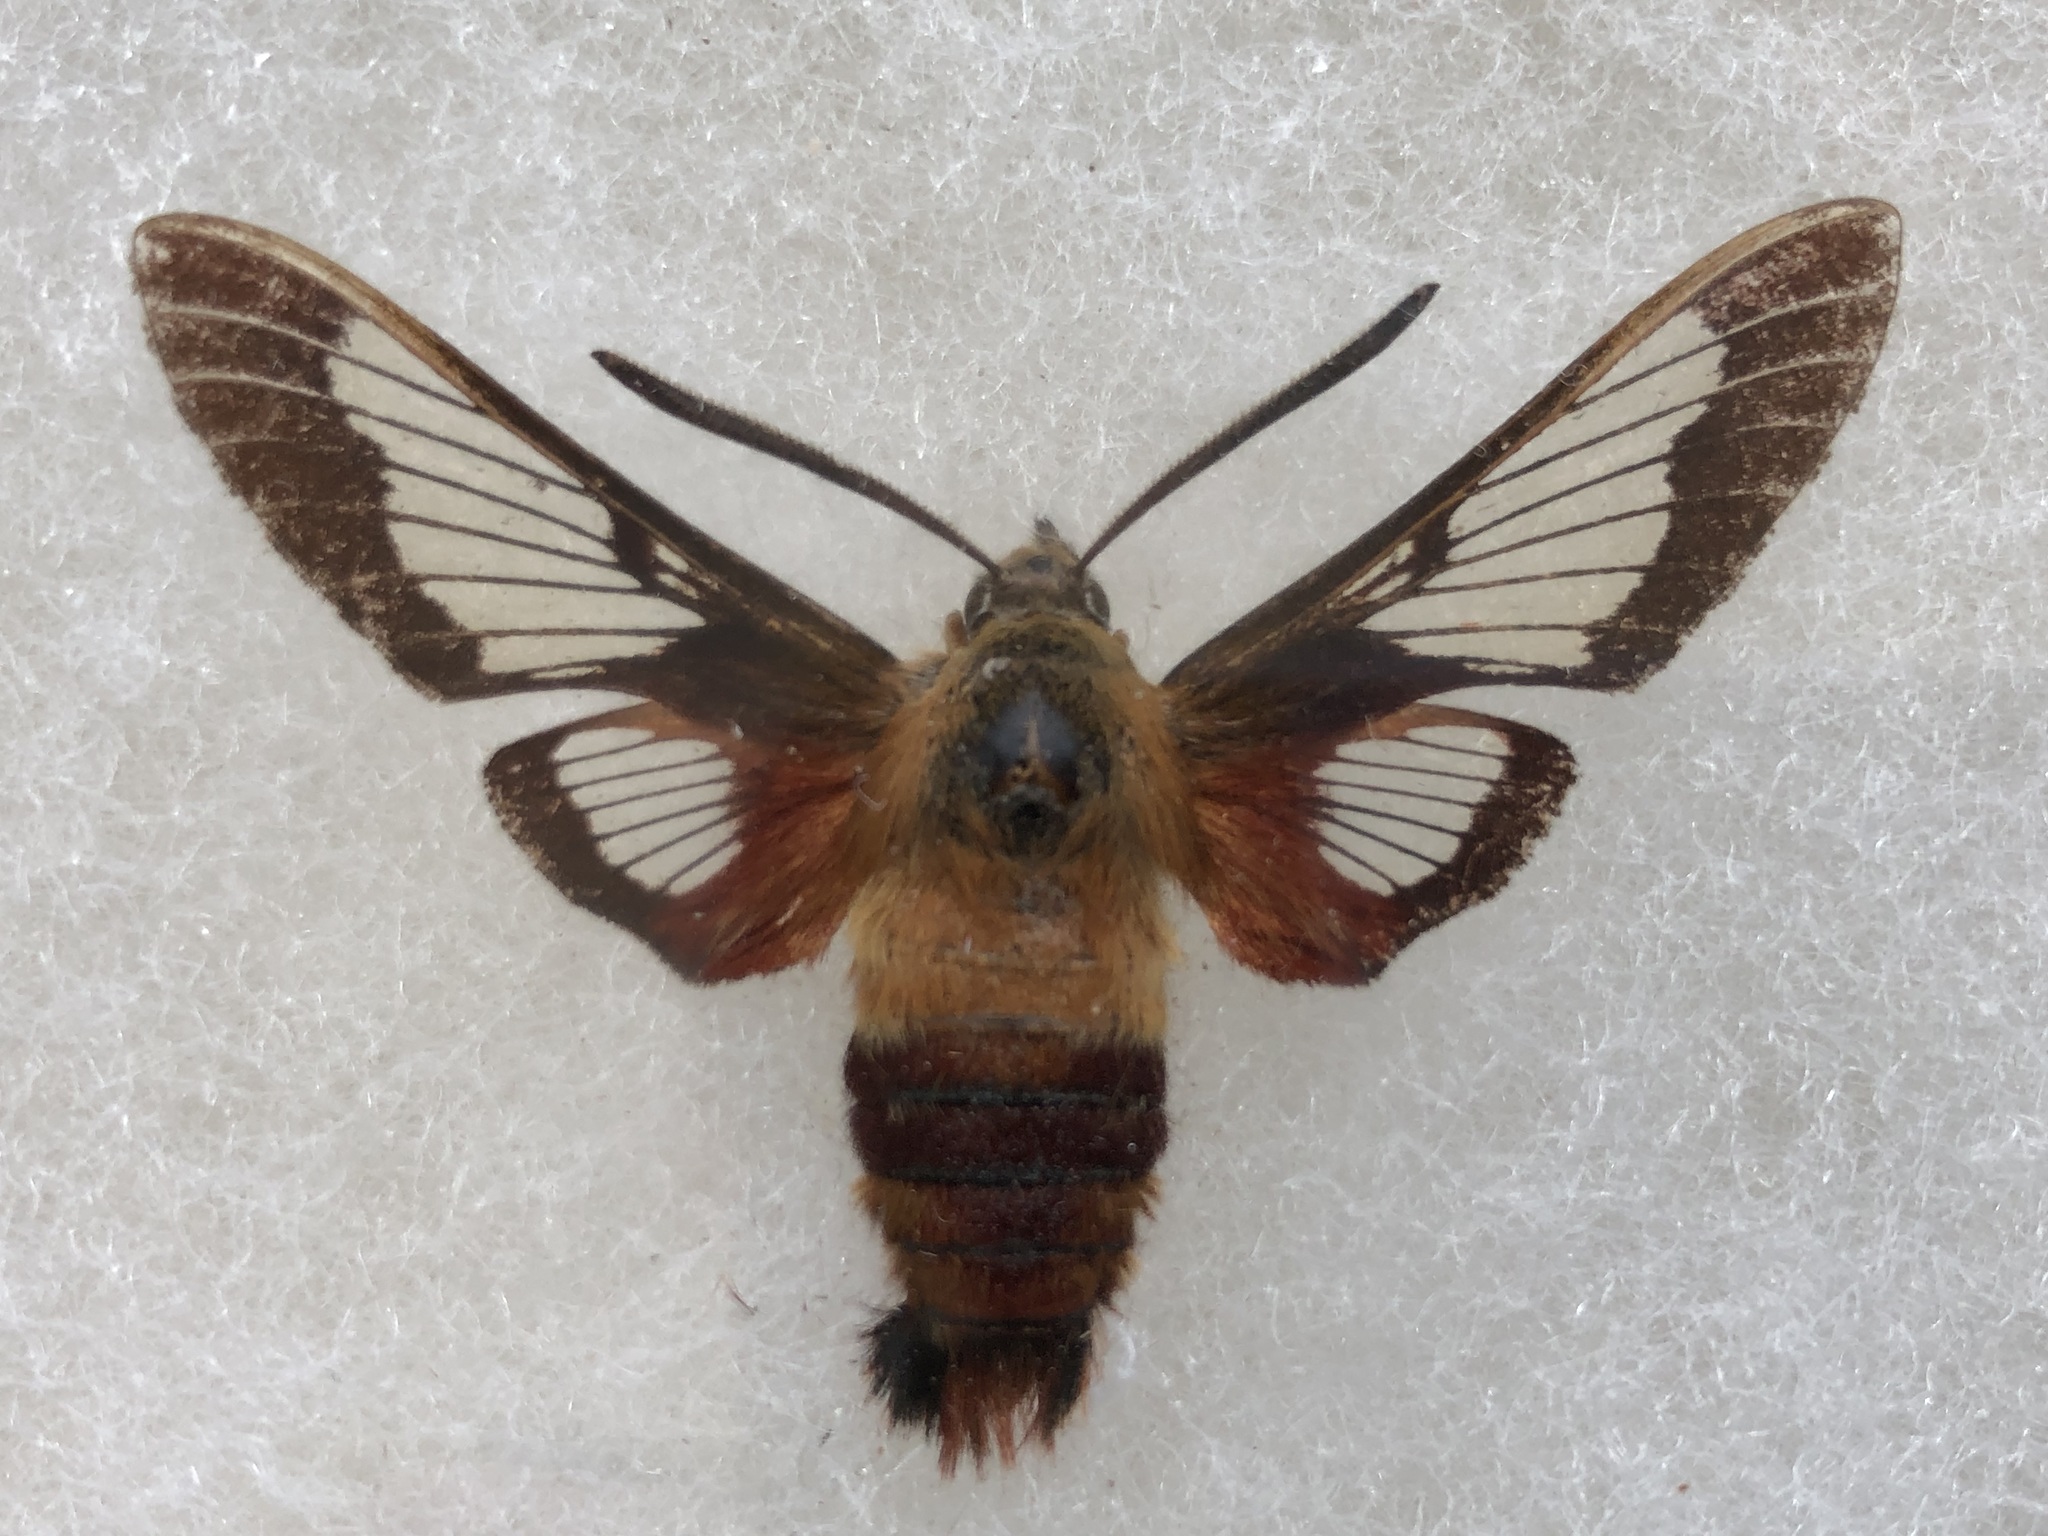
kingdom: Animalia
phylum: Arthropoda
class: Insecta
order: Lepidoptera
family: Sphingidae
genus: Hemaris
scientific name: Hemaris thysbe
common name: Common clear-wing
